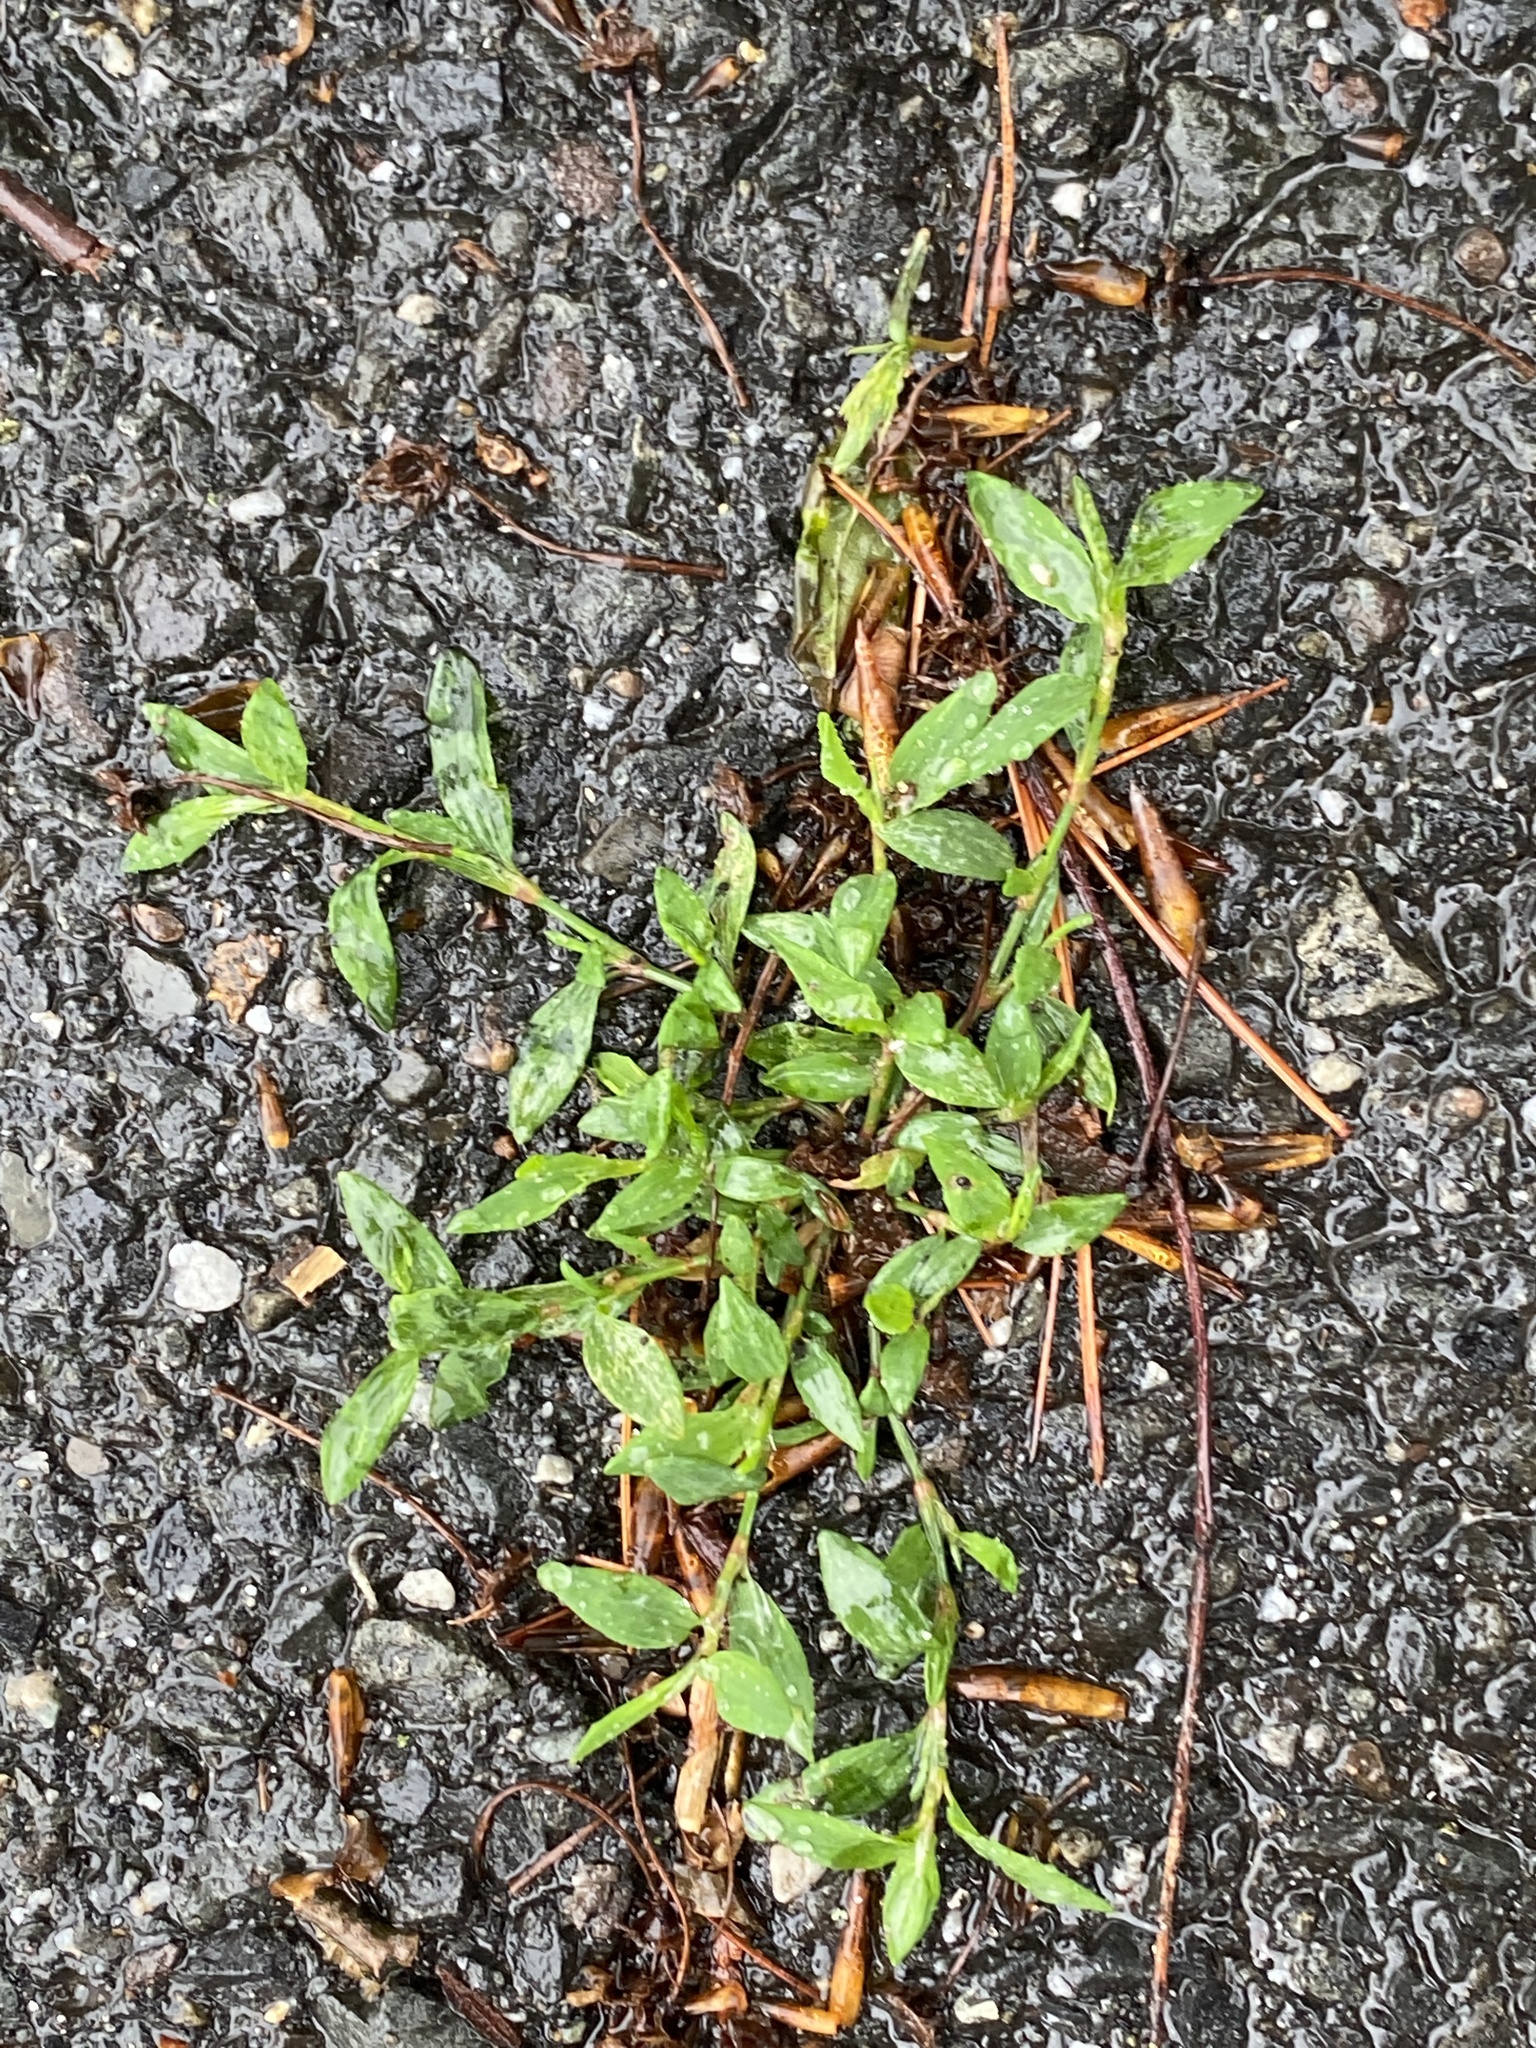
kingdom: Plantae
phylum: Tracheophyta
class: Magnoliopsida
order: Caryophyllales
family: Polygonaceae
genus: Polygonum
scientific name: Polygonum aviculare
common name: Prostrate knotweed
